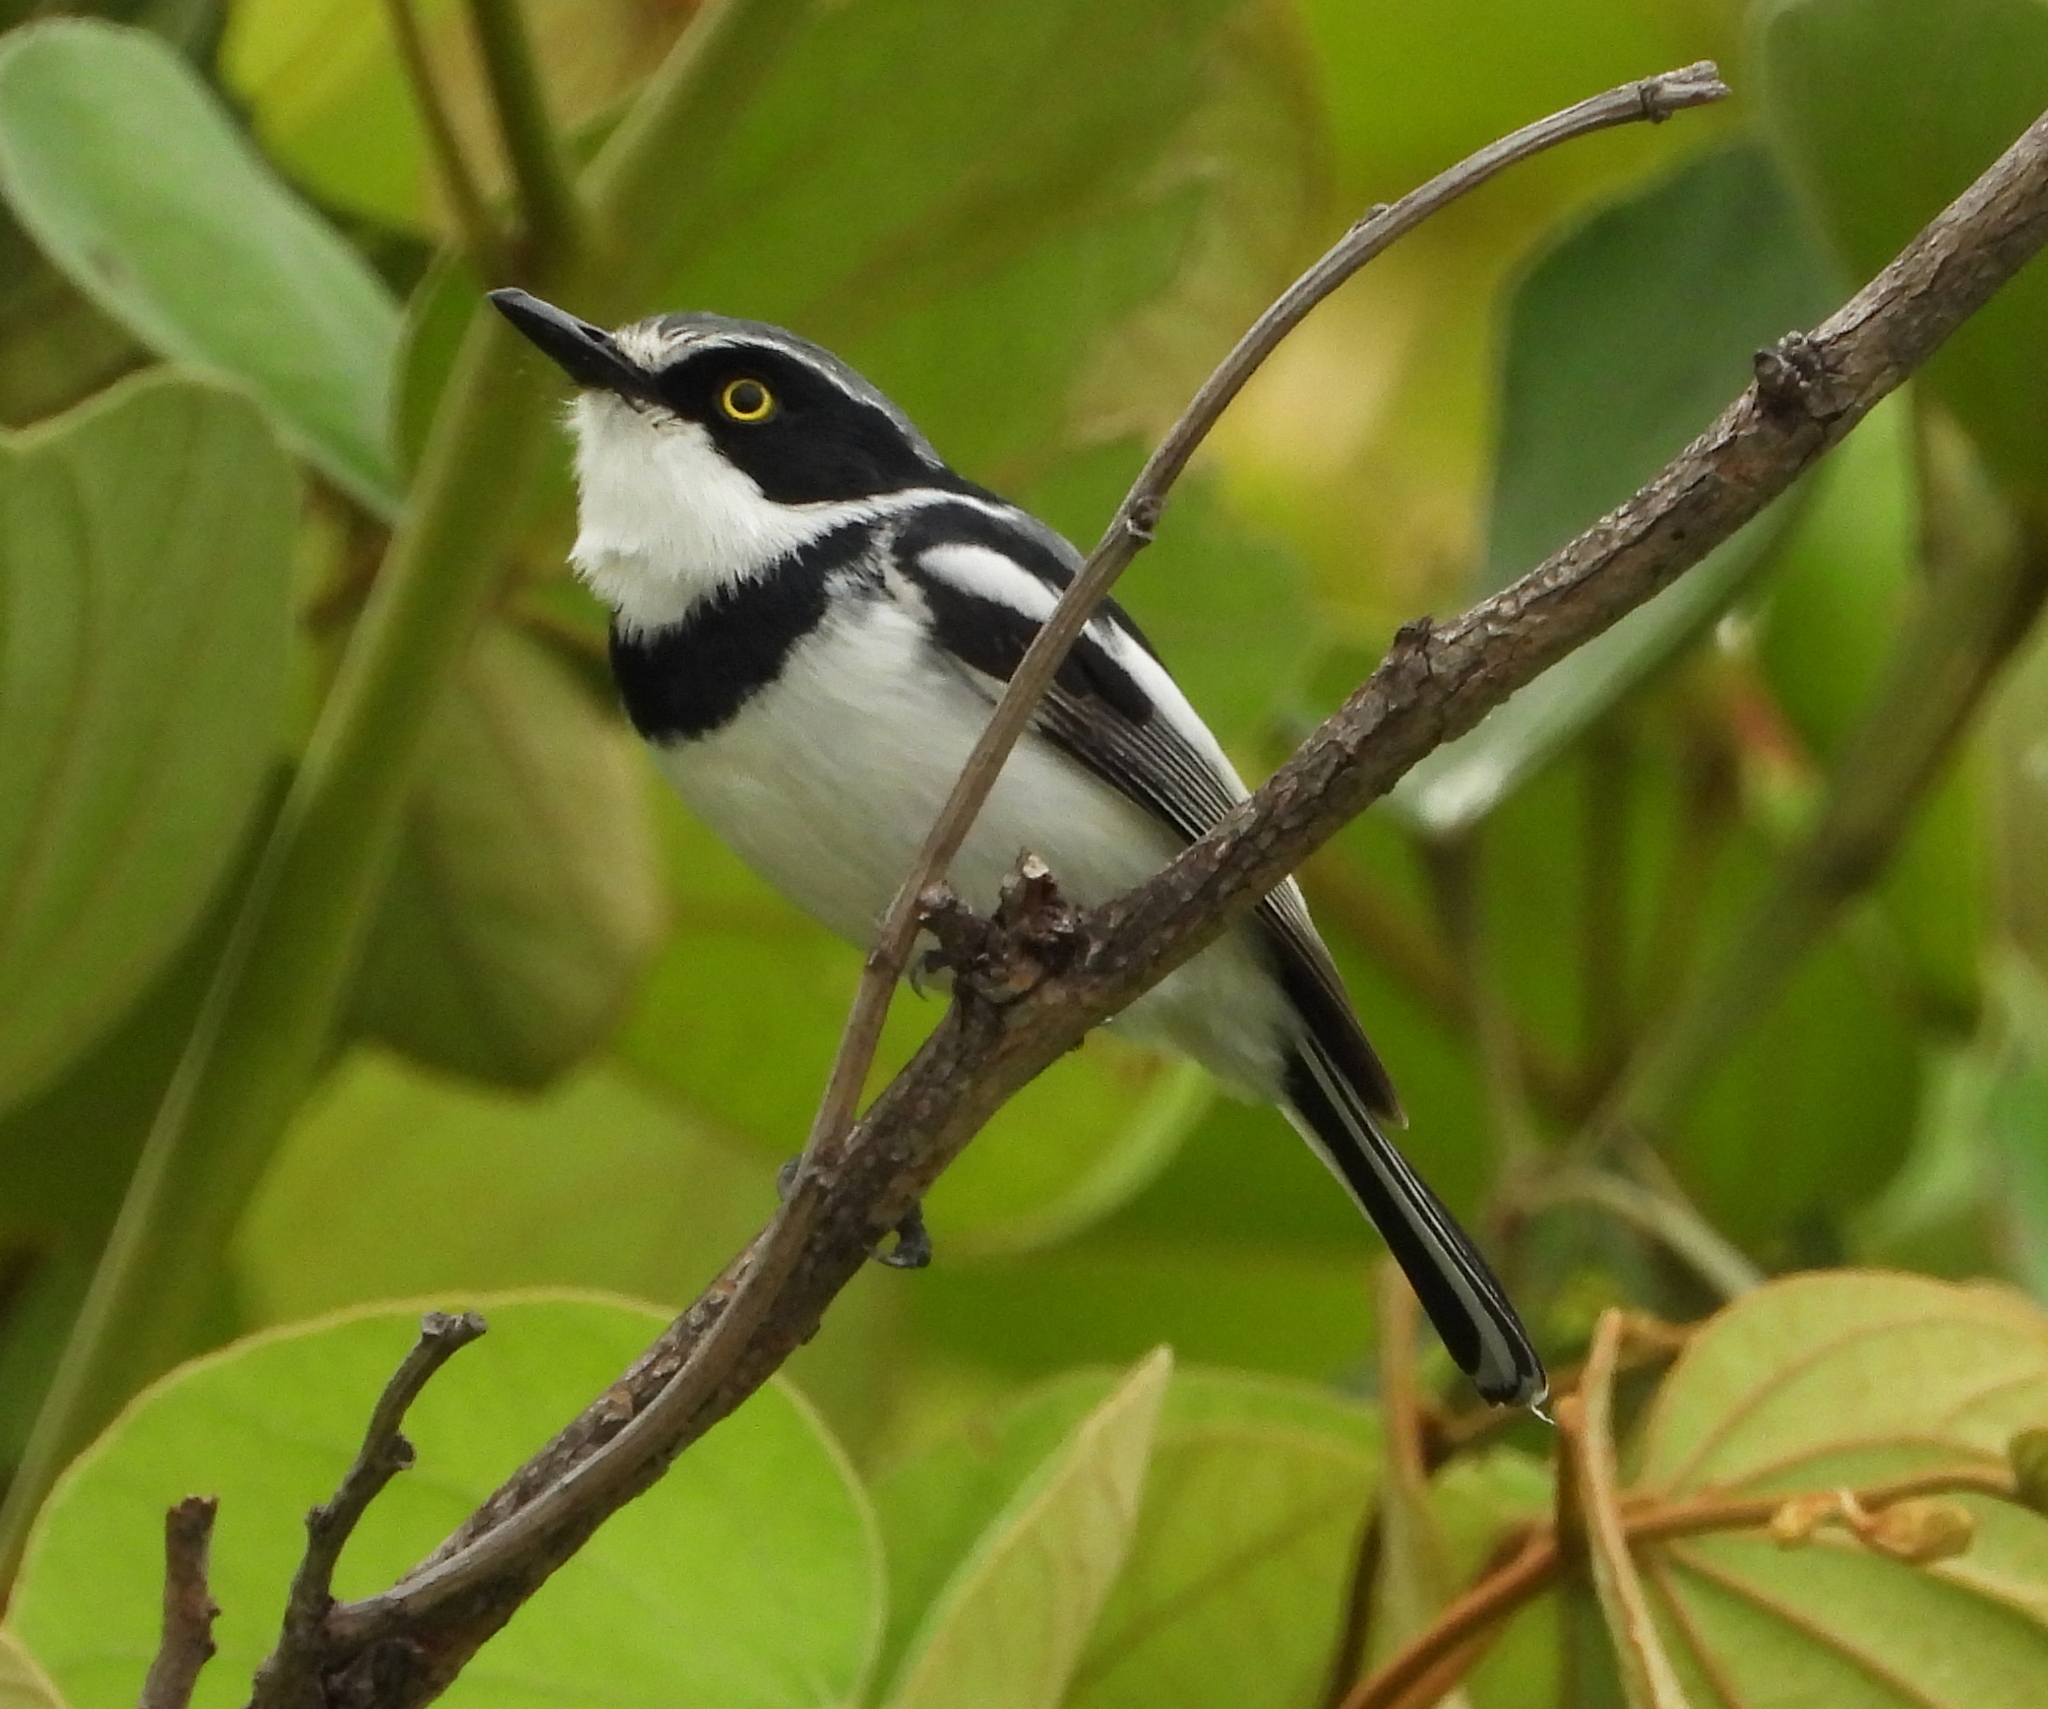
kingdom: Animalia
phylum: Chordata
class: Aves
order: Passeriformes
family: Platysteiridae
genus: Batis
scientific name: Batis molitor
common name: Chinspot batis
